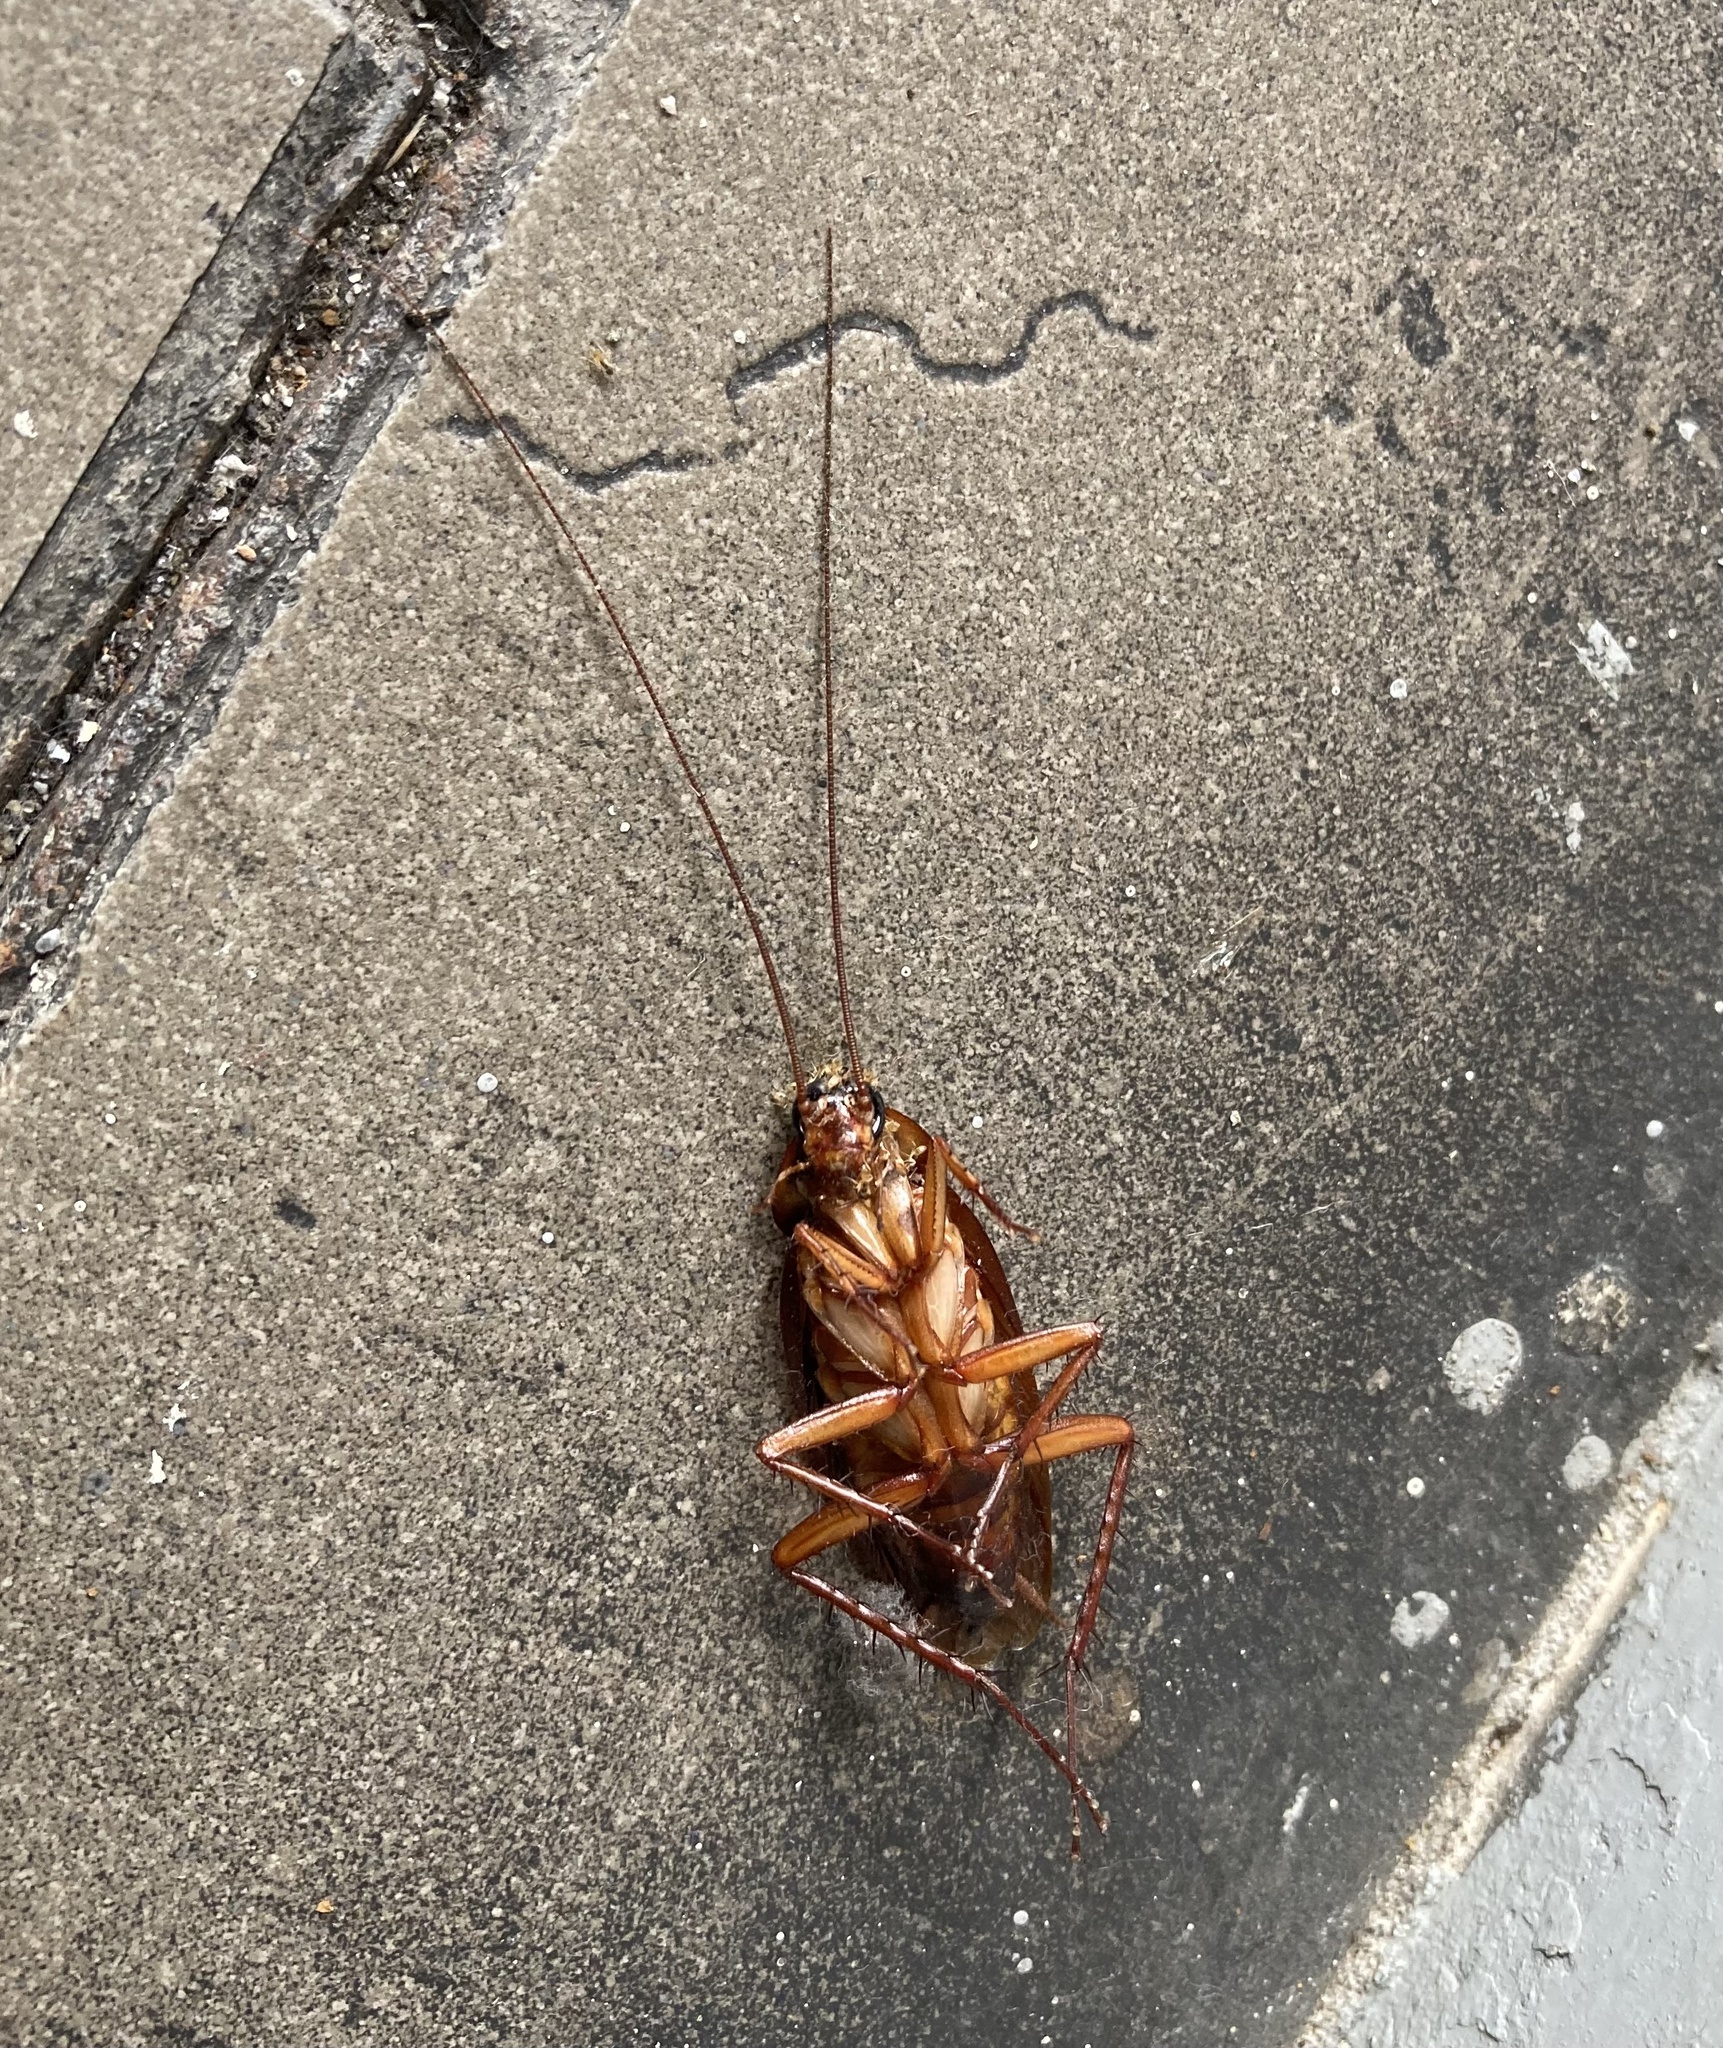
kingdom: Animalia
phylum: Arthropoda
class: Insecta
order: Blattodea
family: Blattidae
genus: Periplaneta
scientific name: Periplaneta americana
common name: American cockroach
